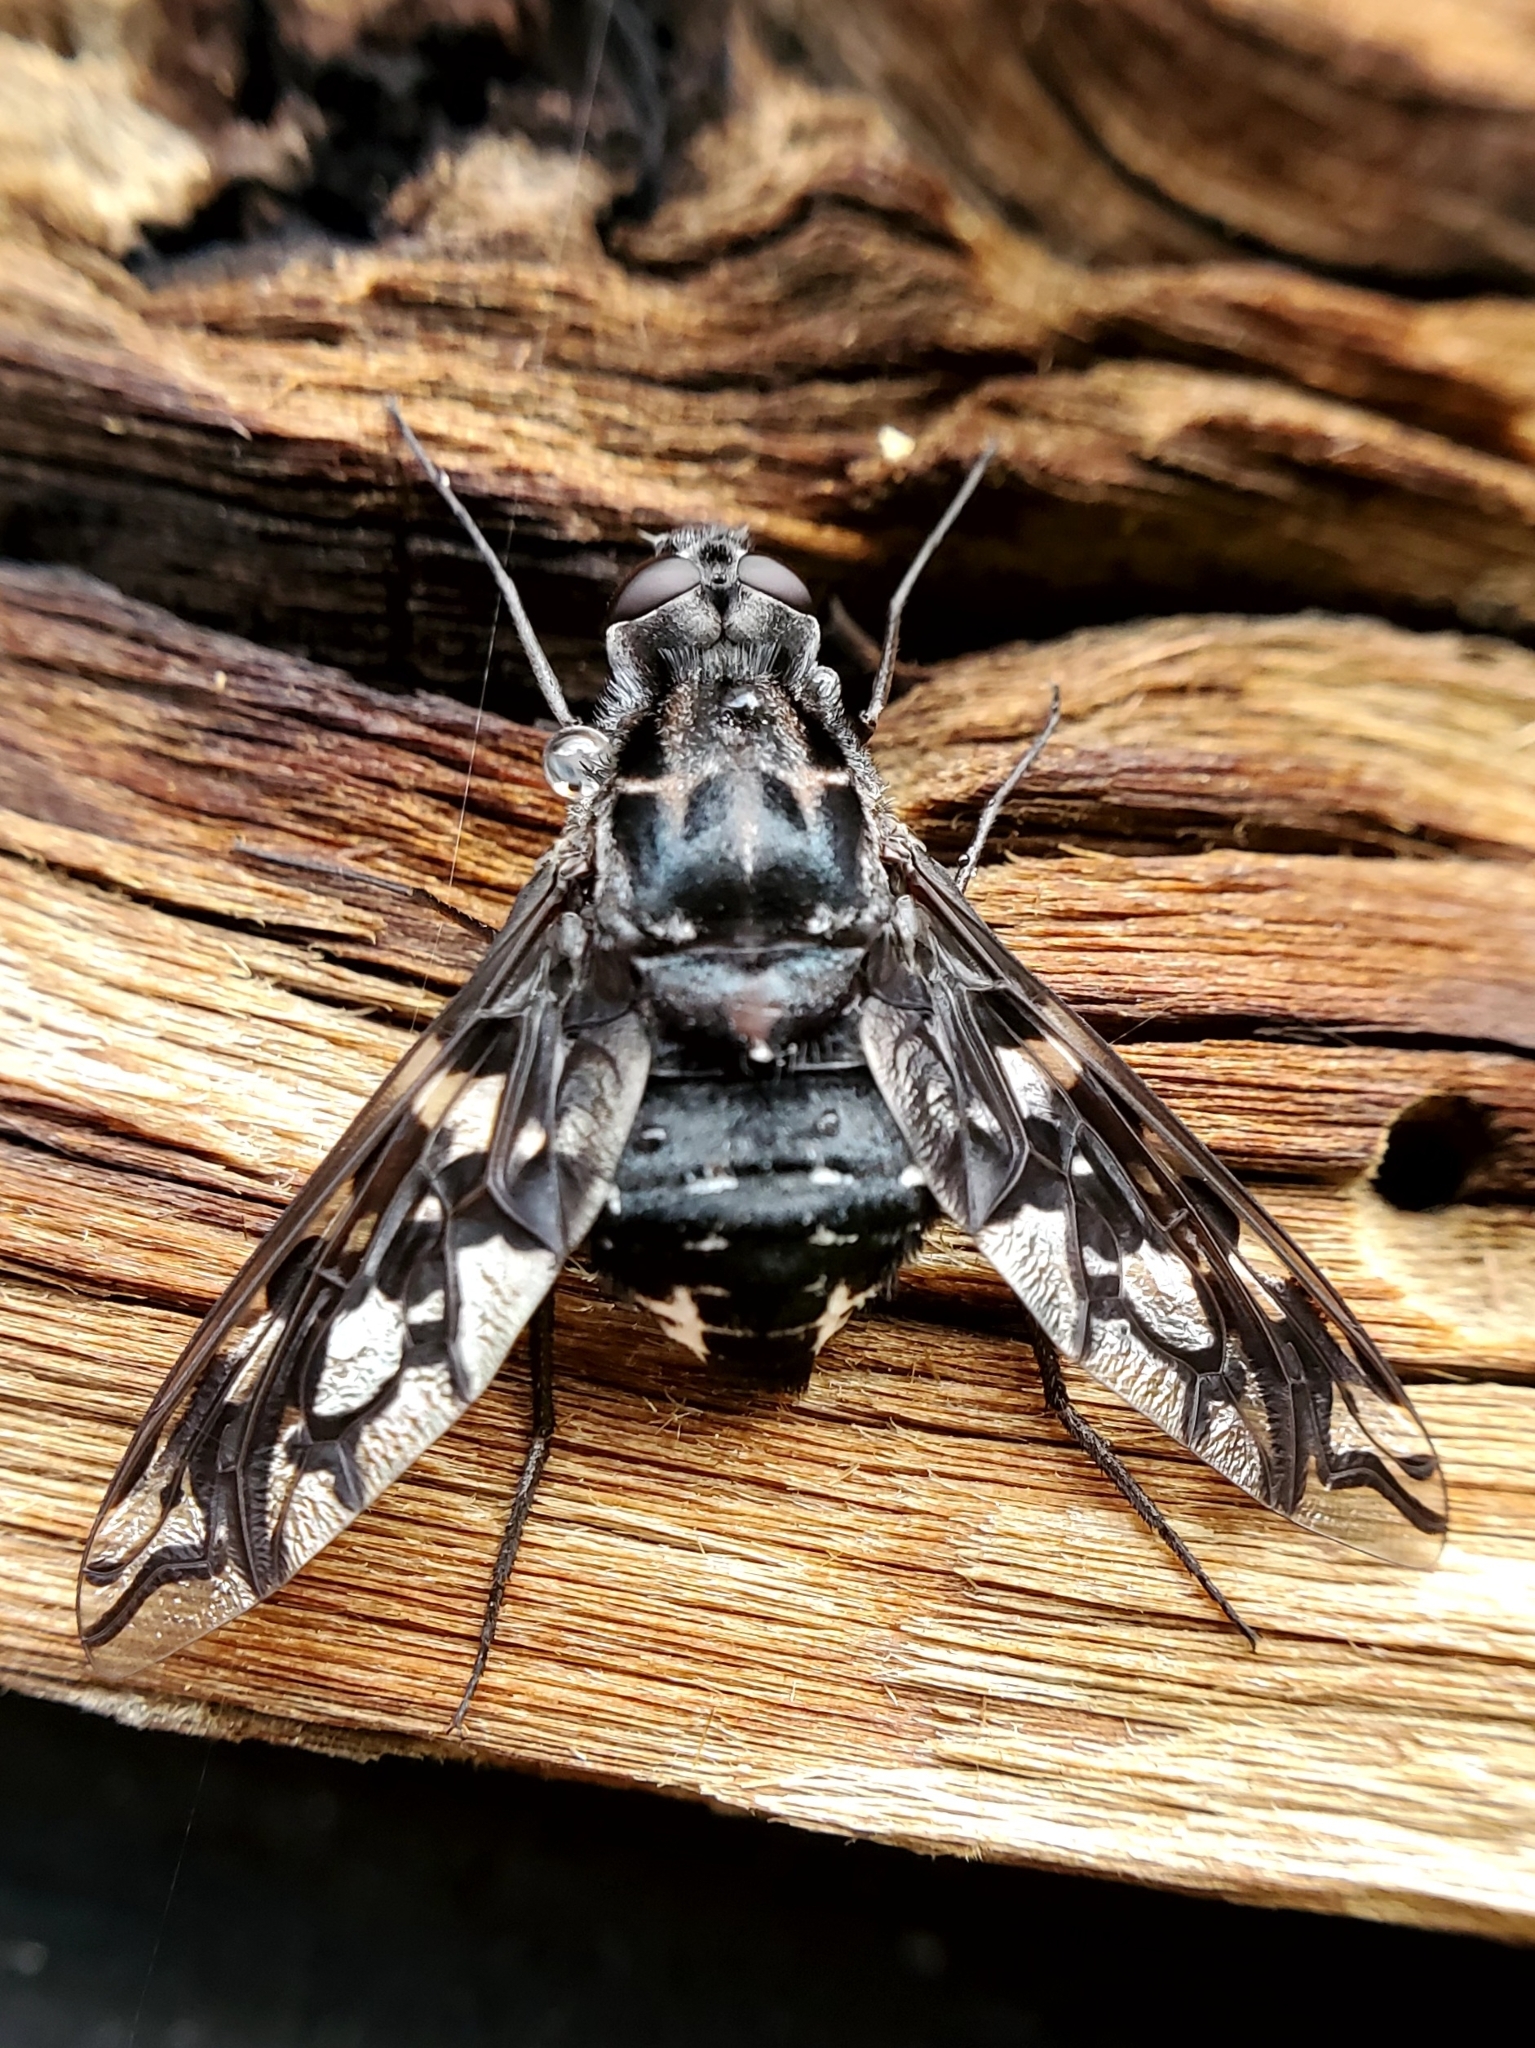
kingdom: Animalia
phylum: Arthropoda
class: Insecta
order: Diptera
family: Bombyliidae
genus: Xenox
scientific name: Xenox tigrinus
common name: Tiger bee fly
